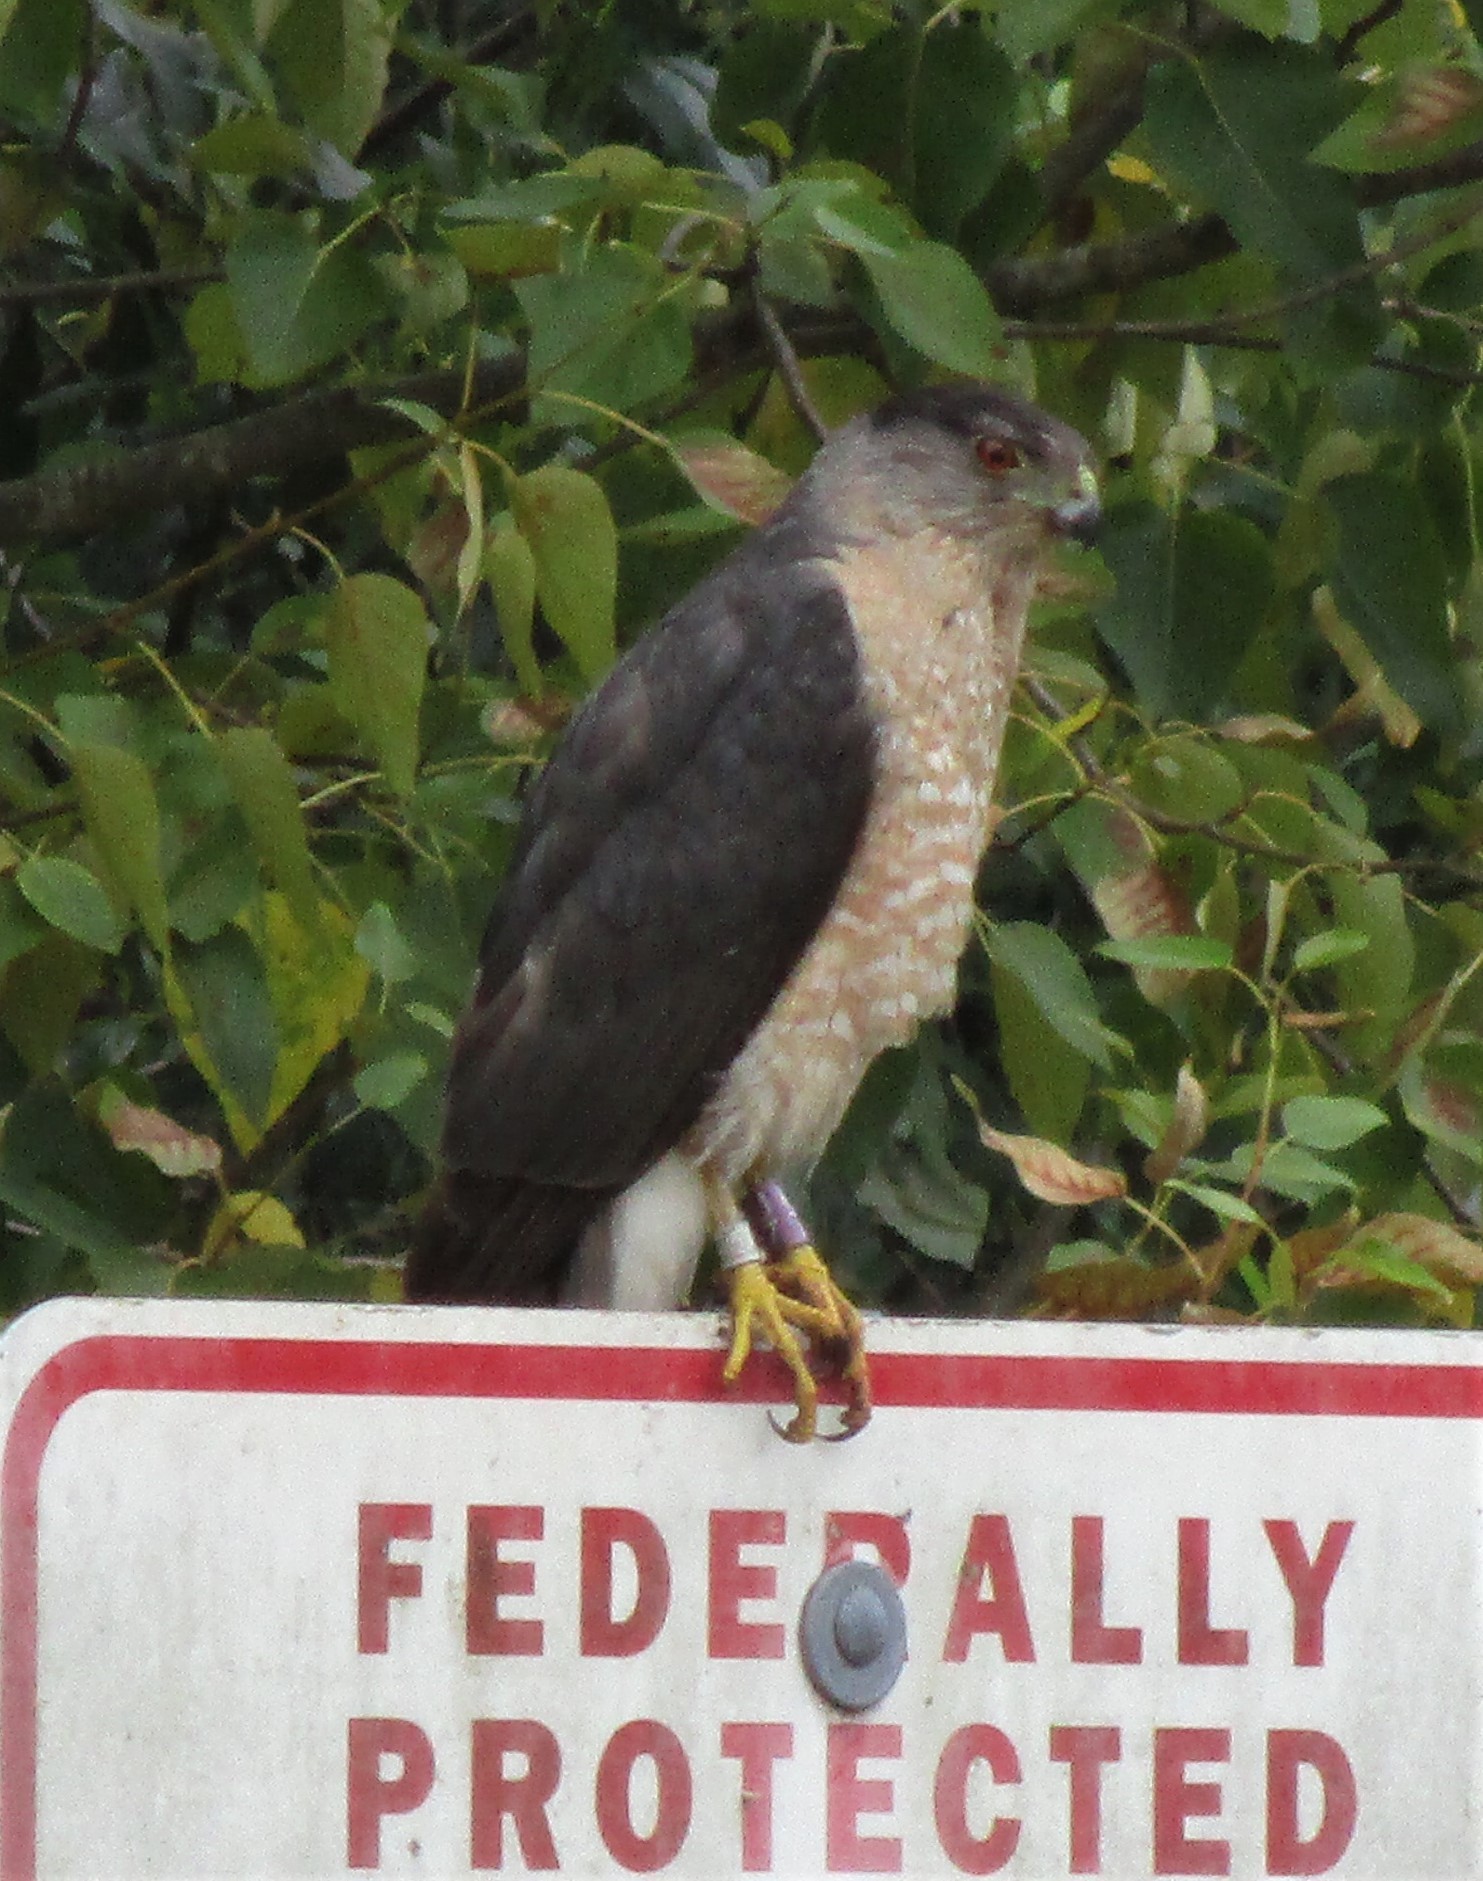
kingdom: Animalia
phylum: Chordata
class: Aves
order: Accipitriformes
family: Accipitridae
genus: Accipiter
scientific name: Accipiter cooperii
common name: Cooper's hawk
